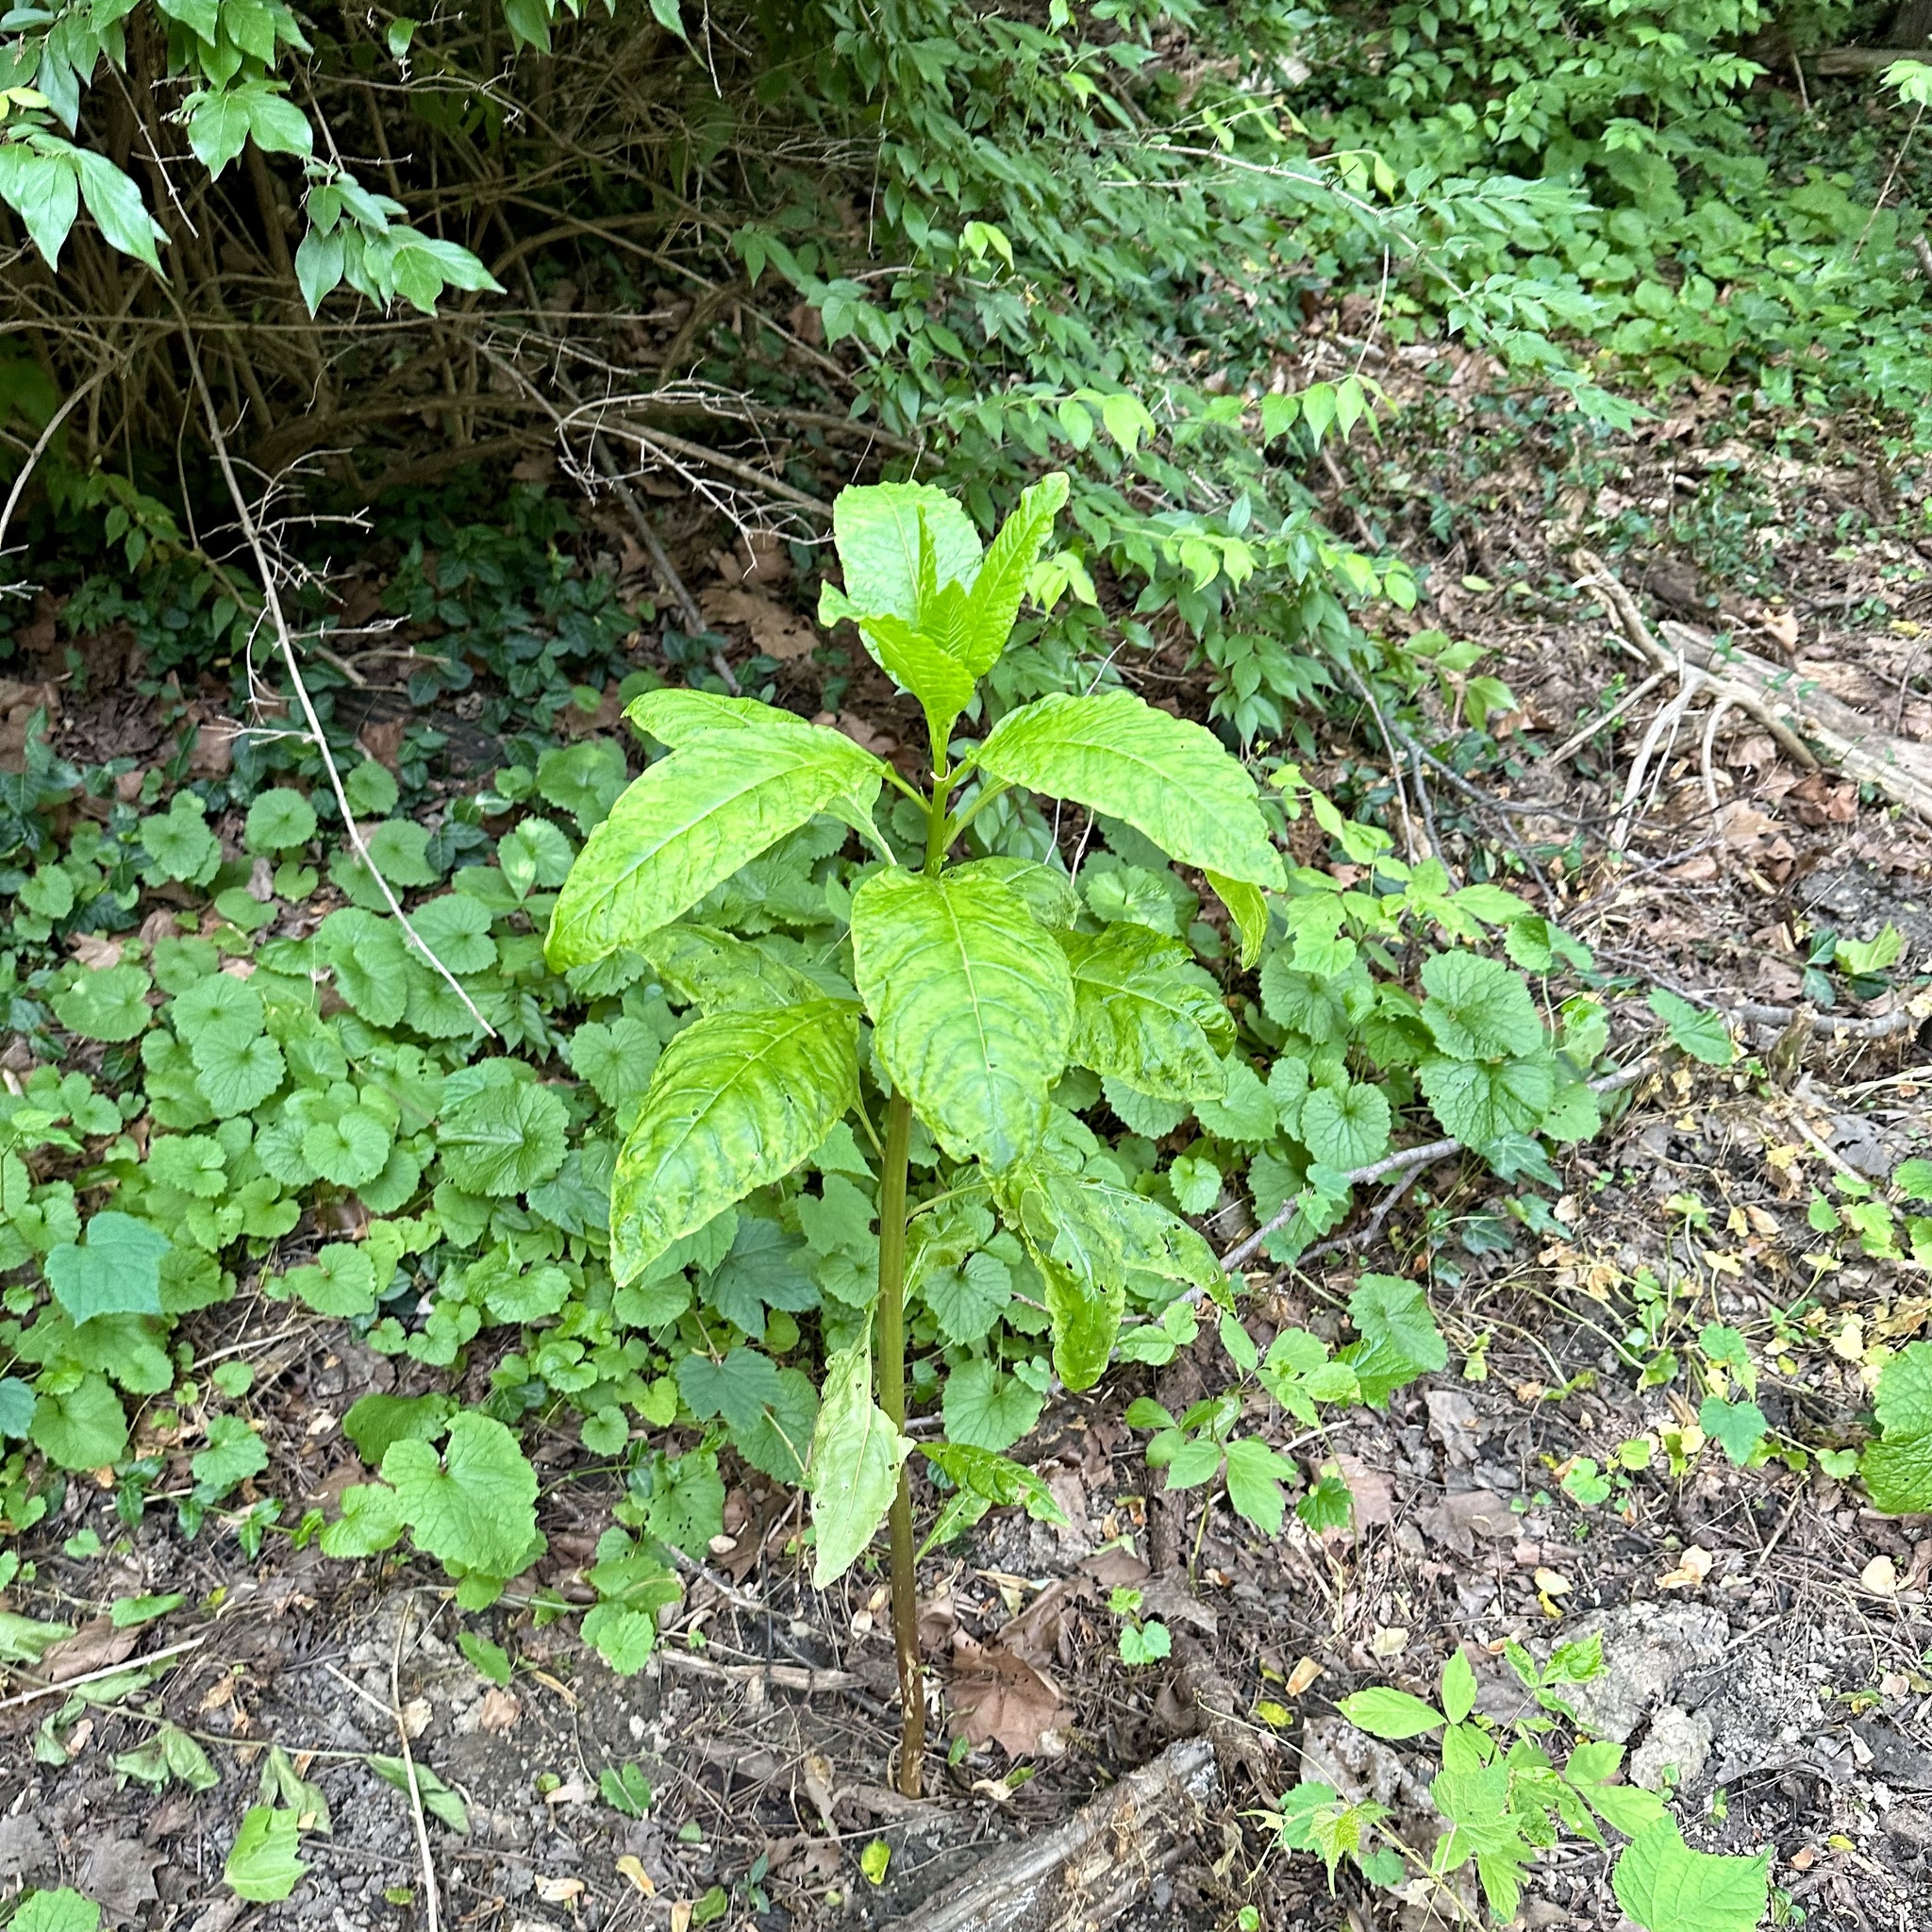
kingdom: Plantae
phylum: Tracheophyta
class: Magnoliopsida
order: Caryophyllales
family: Phytolaccaceae
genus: Phytolacca
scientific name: Phytolacca americana
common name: American pokeweed
